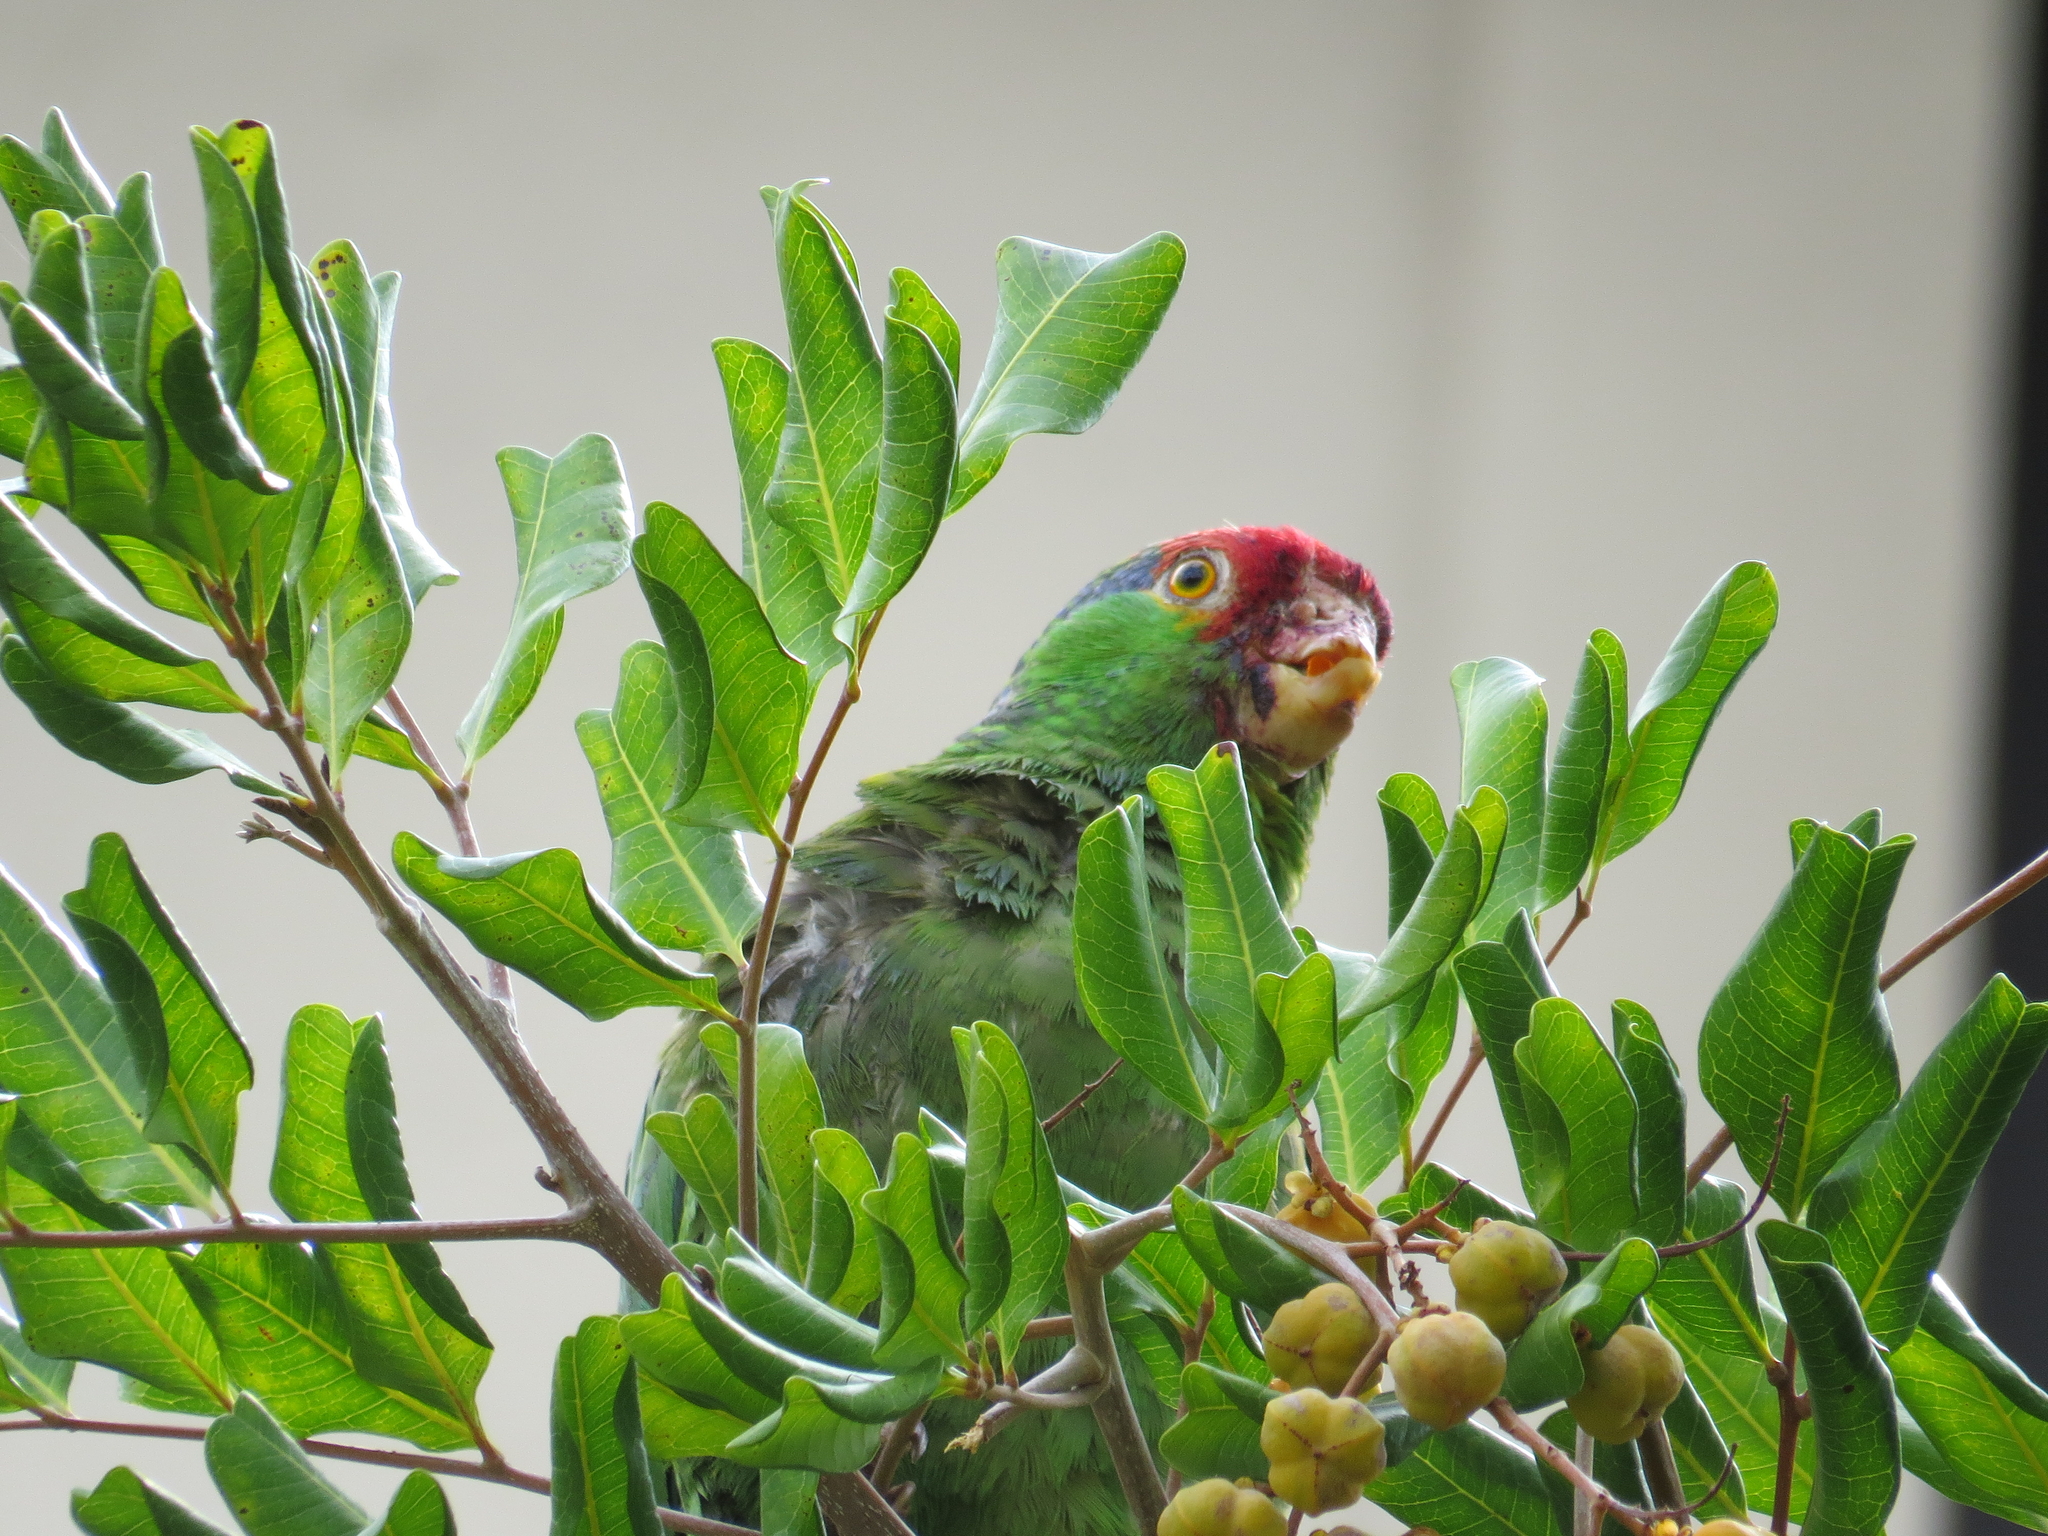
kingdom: Animalia
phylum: Chordata
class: Aves
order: Psittaciformes
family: Psittacidae
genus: Amazona
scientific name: Amazona viridigenalis
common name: Red-crowned amazon
